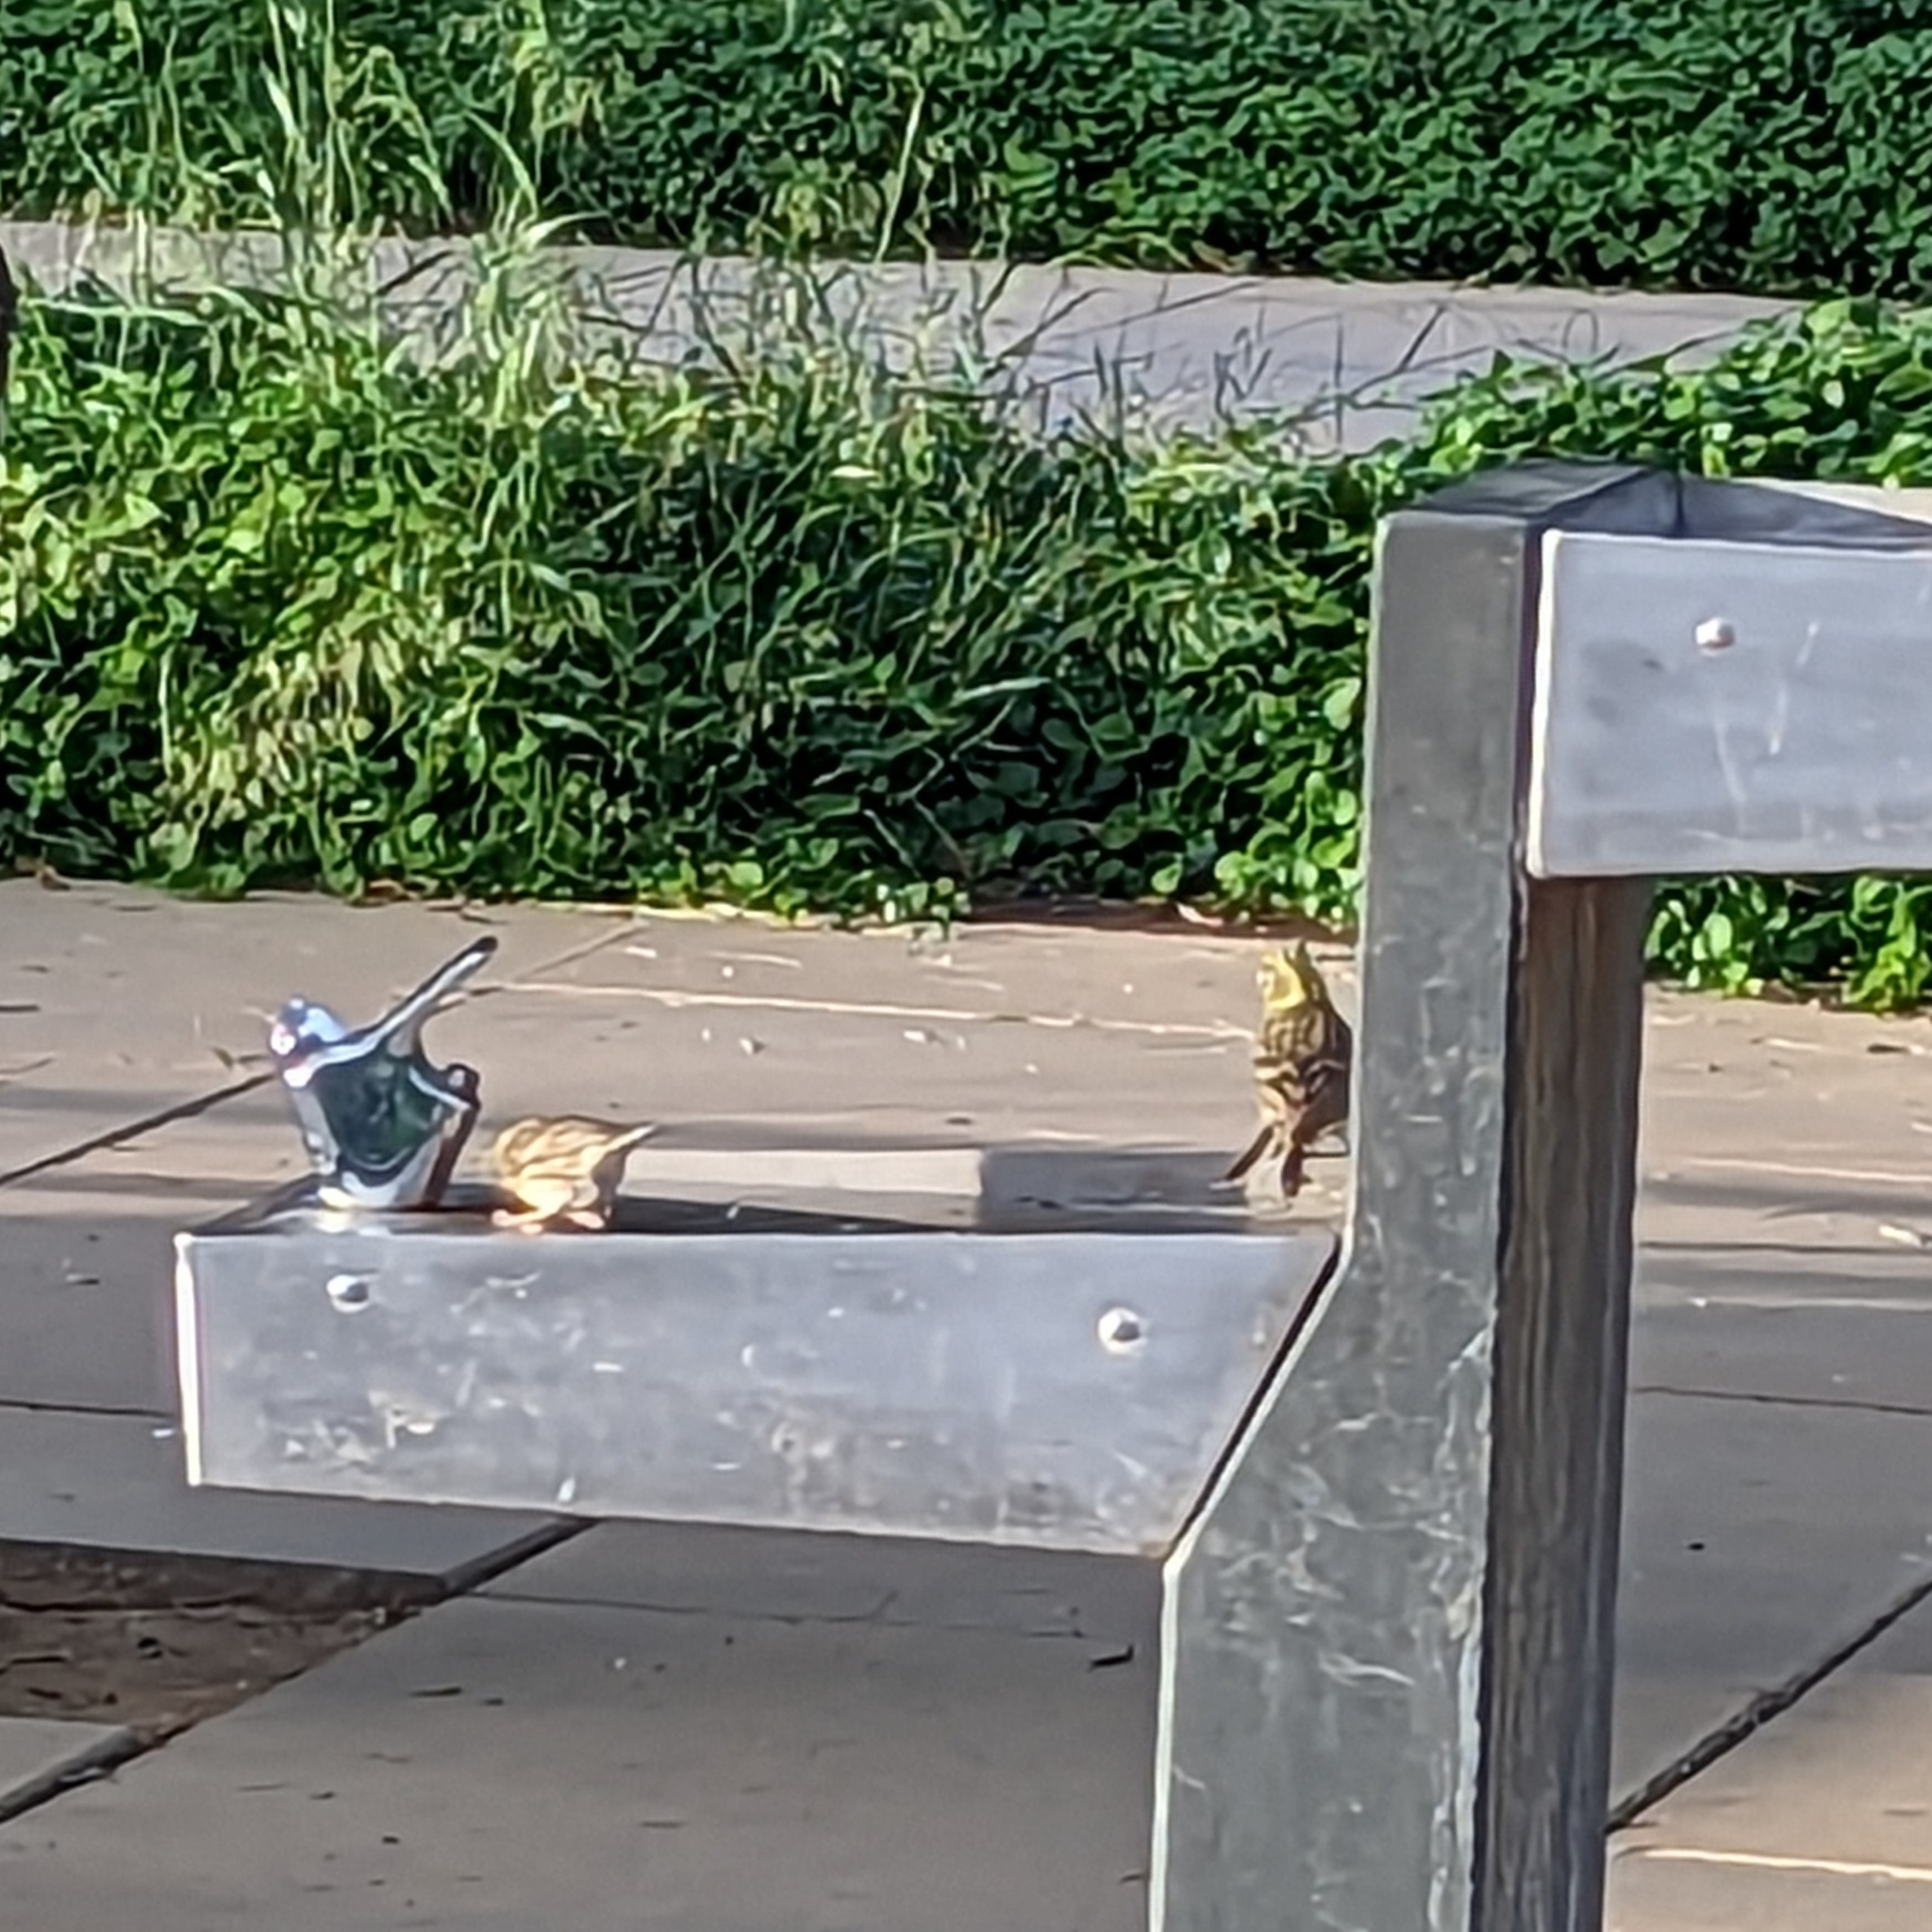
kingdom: Animalia
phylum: Chordata
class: Aves
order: Passeriformes
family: Fringillidae
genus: Serinus
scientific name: Serinus serinus
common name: European serin
